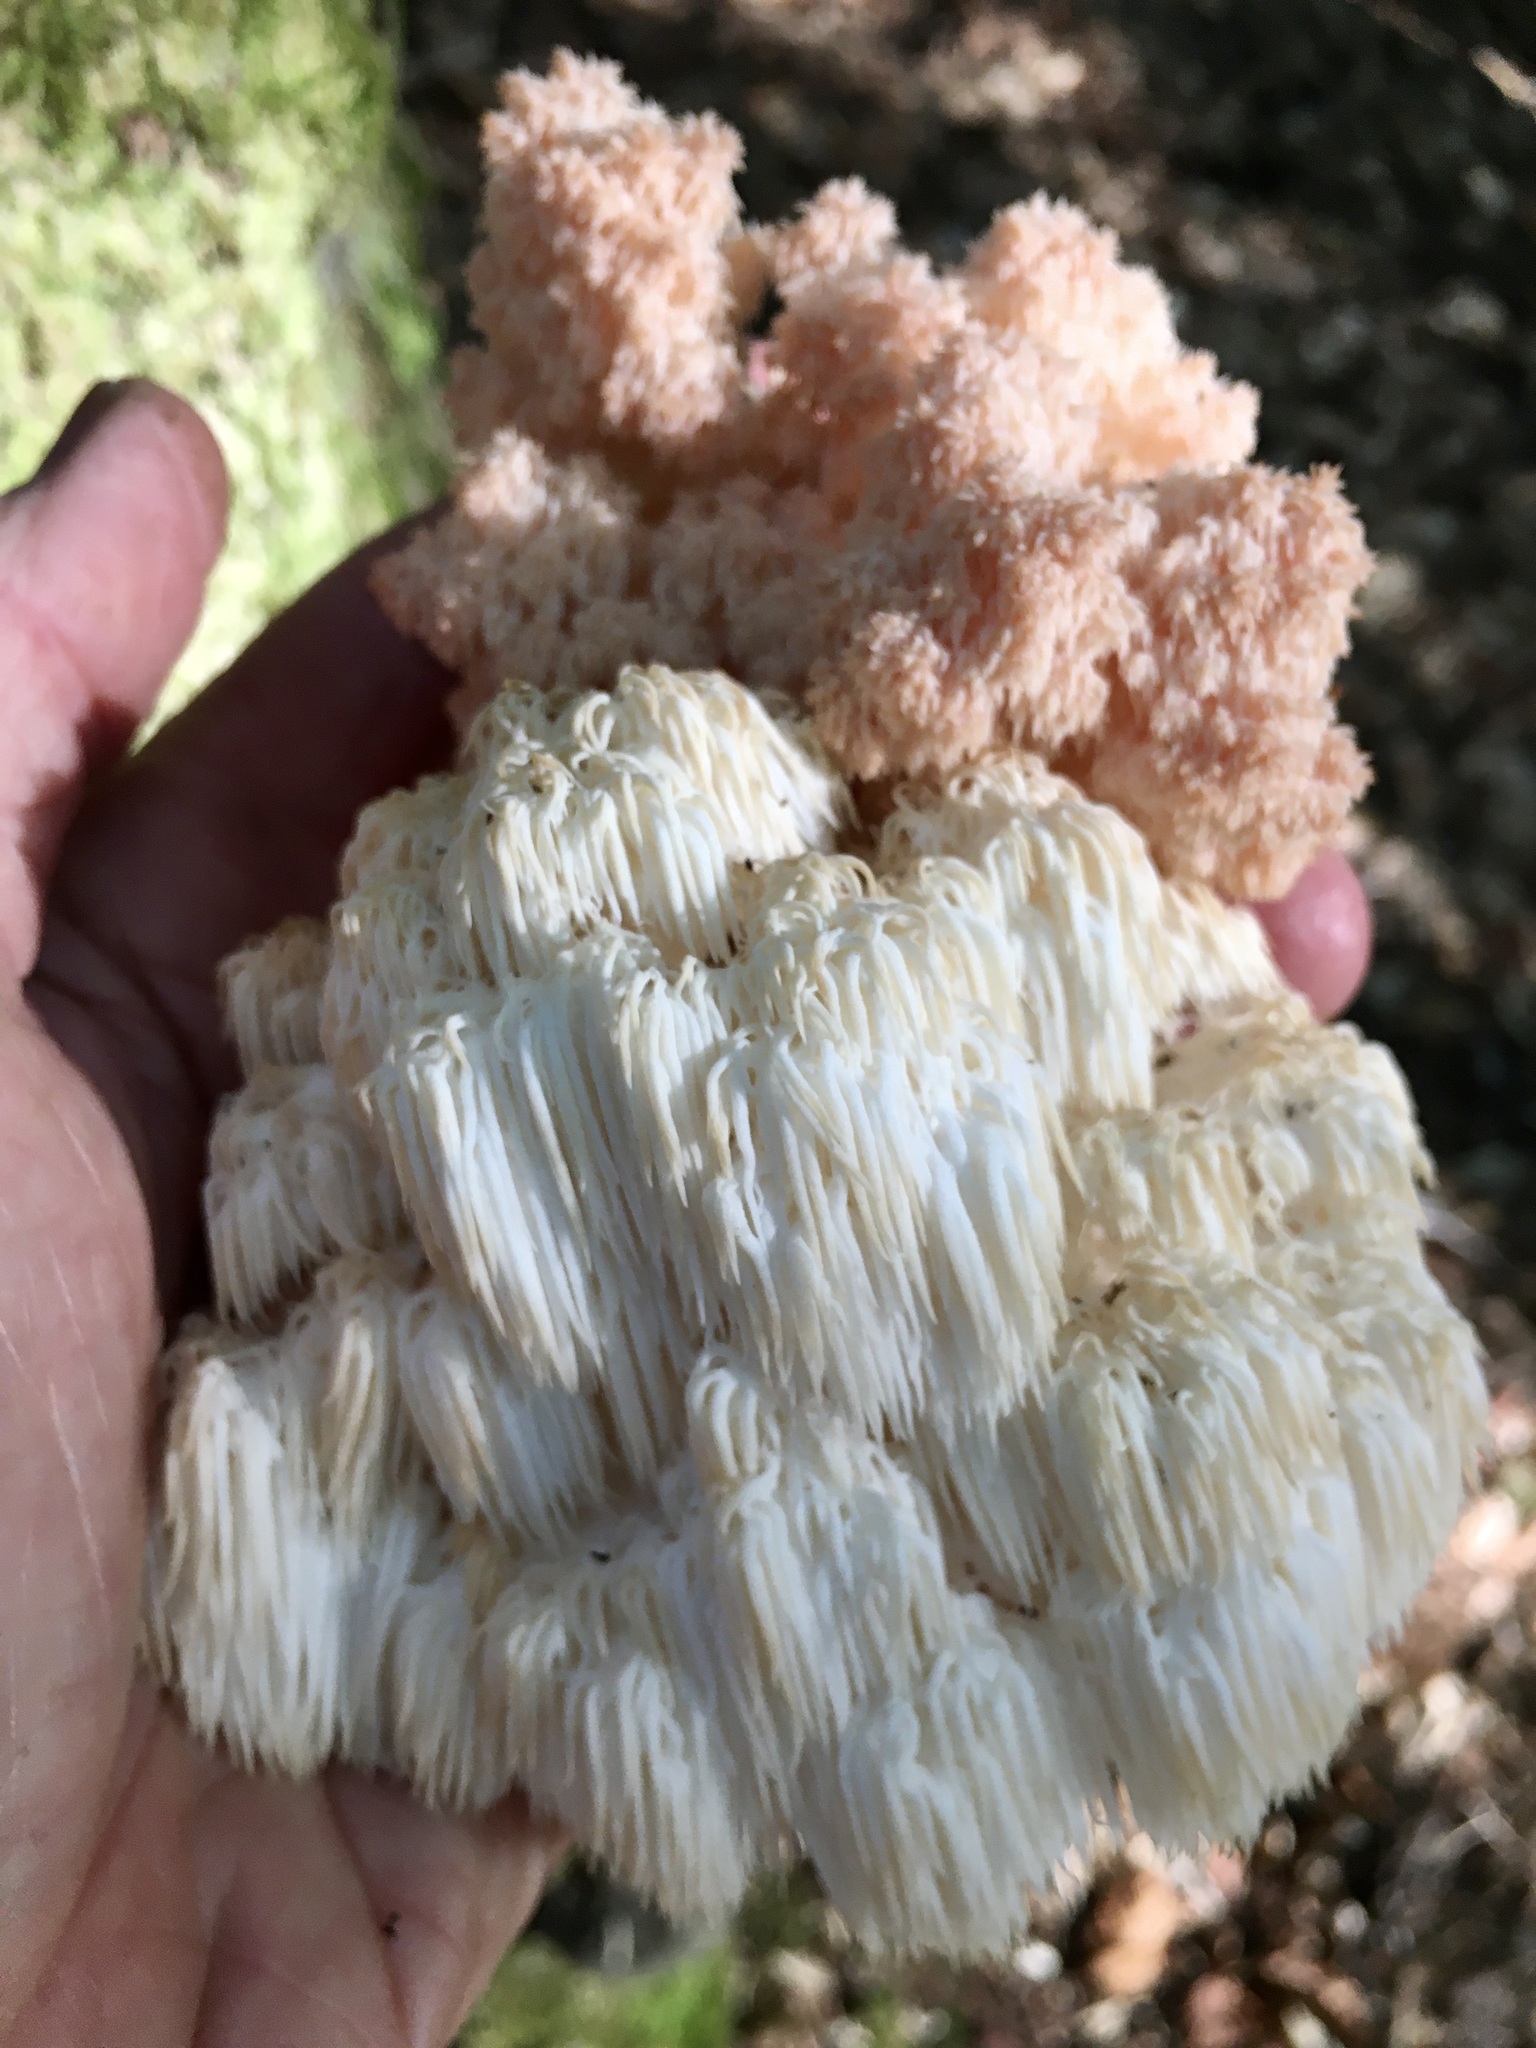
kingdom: Fungi
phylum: Basidiomycota
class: Agaricomycetes
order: Russulales
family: Hericiaceae
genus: Hericium
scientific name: Hericium americanum
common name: Bear's head tooth
